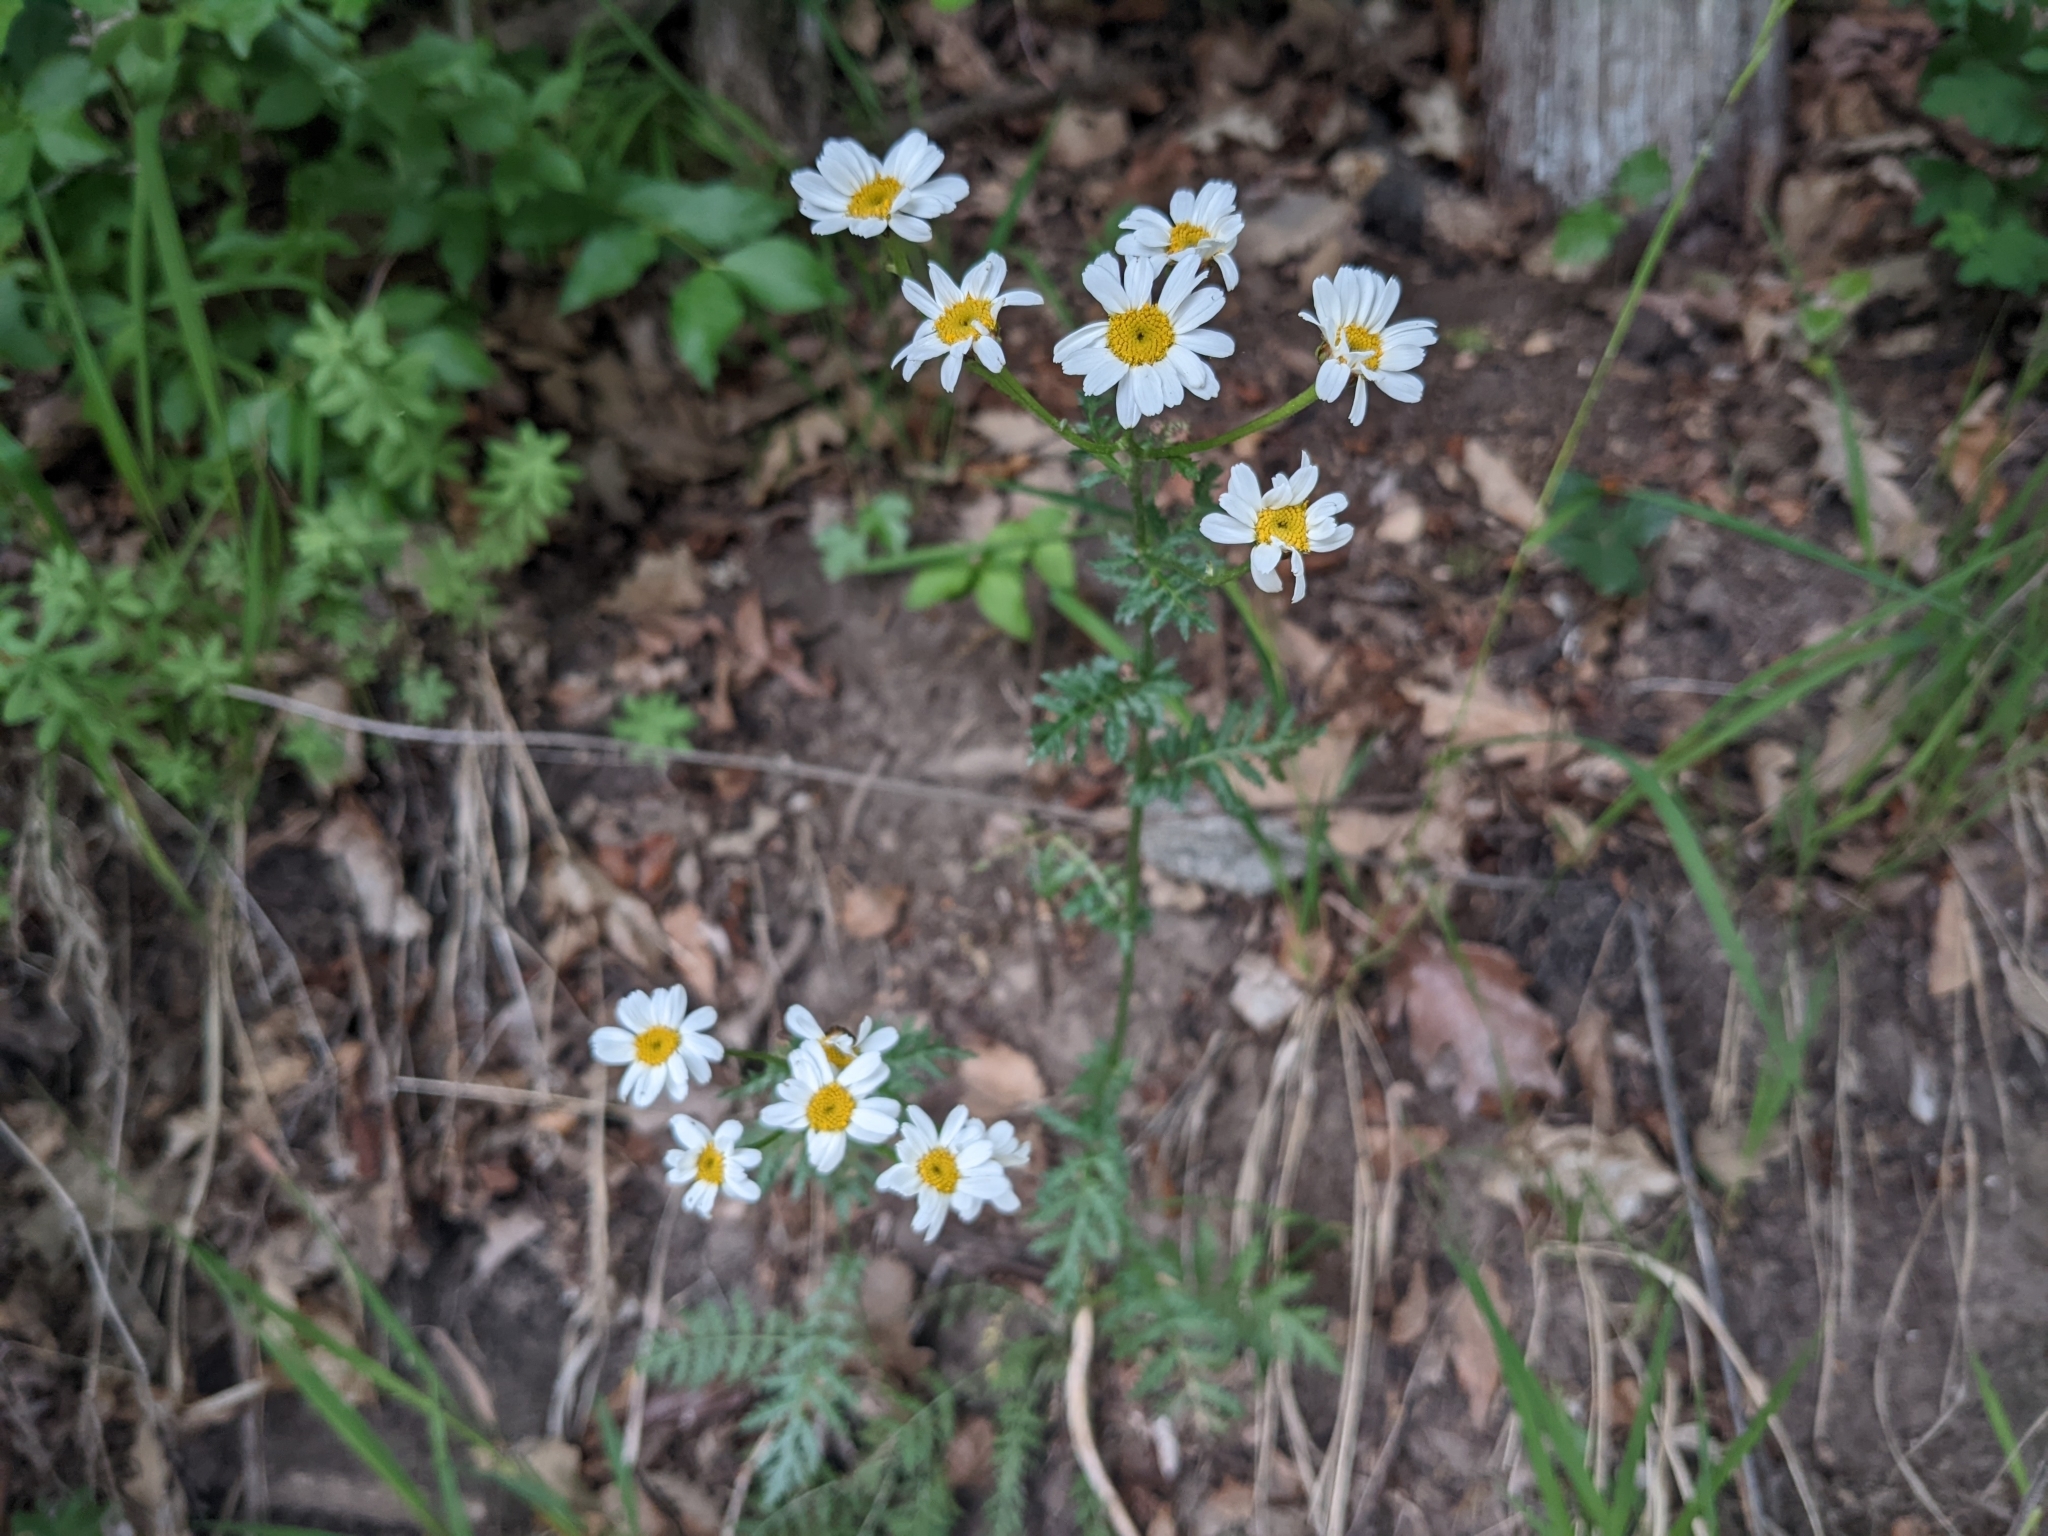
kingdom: Plantae
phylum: Tracheophyta
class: Magnoliopsida
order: Asterales
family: Asteraceae
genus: Tanacetum
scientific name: Tanacetum corymbosum
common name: Scentless feverfew
